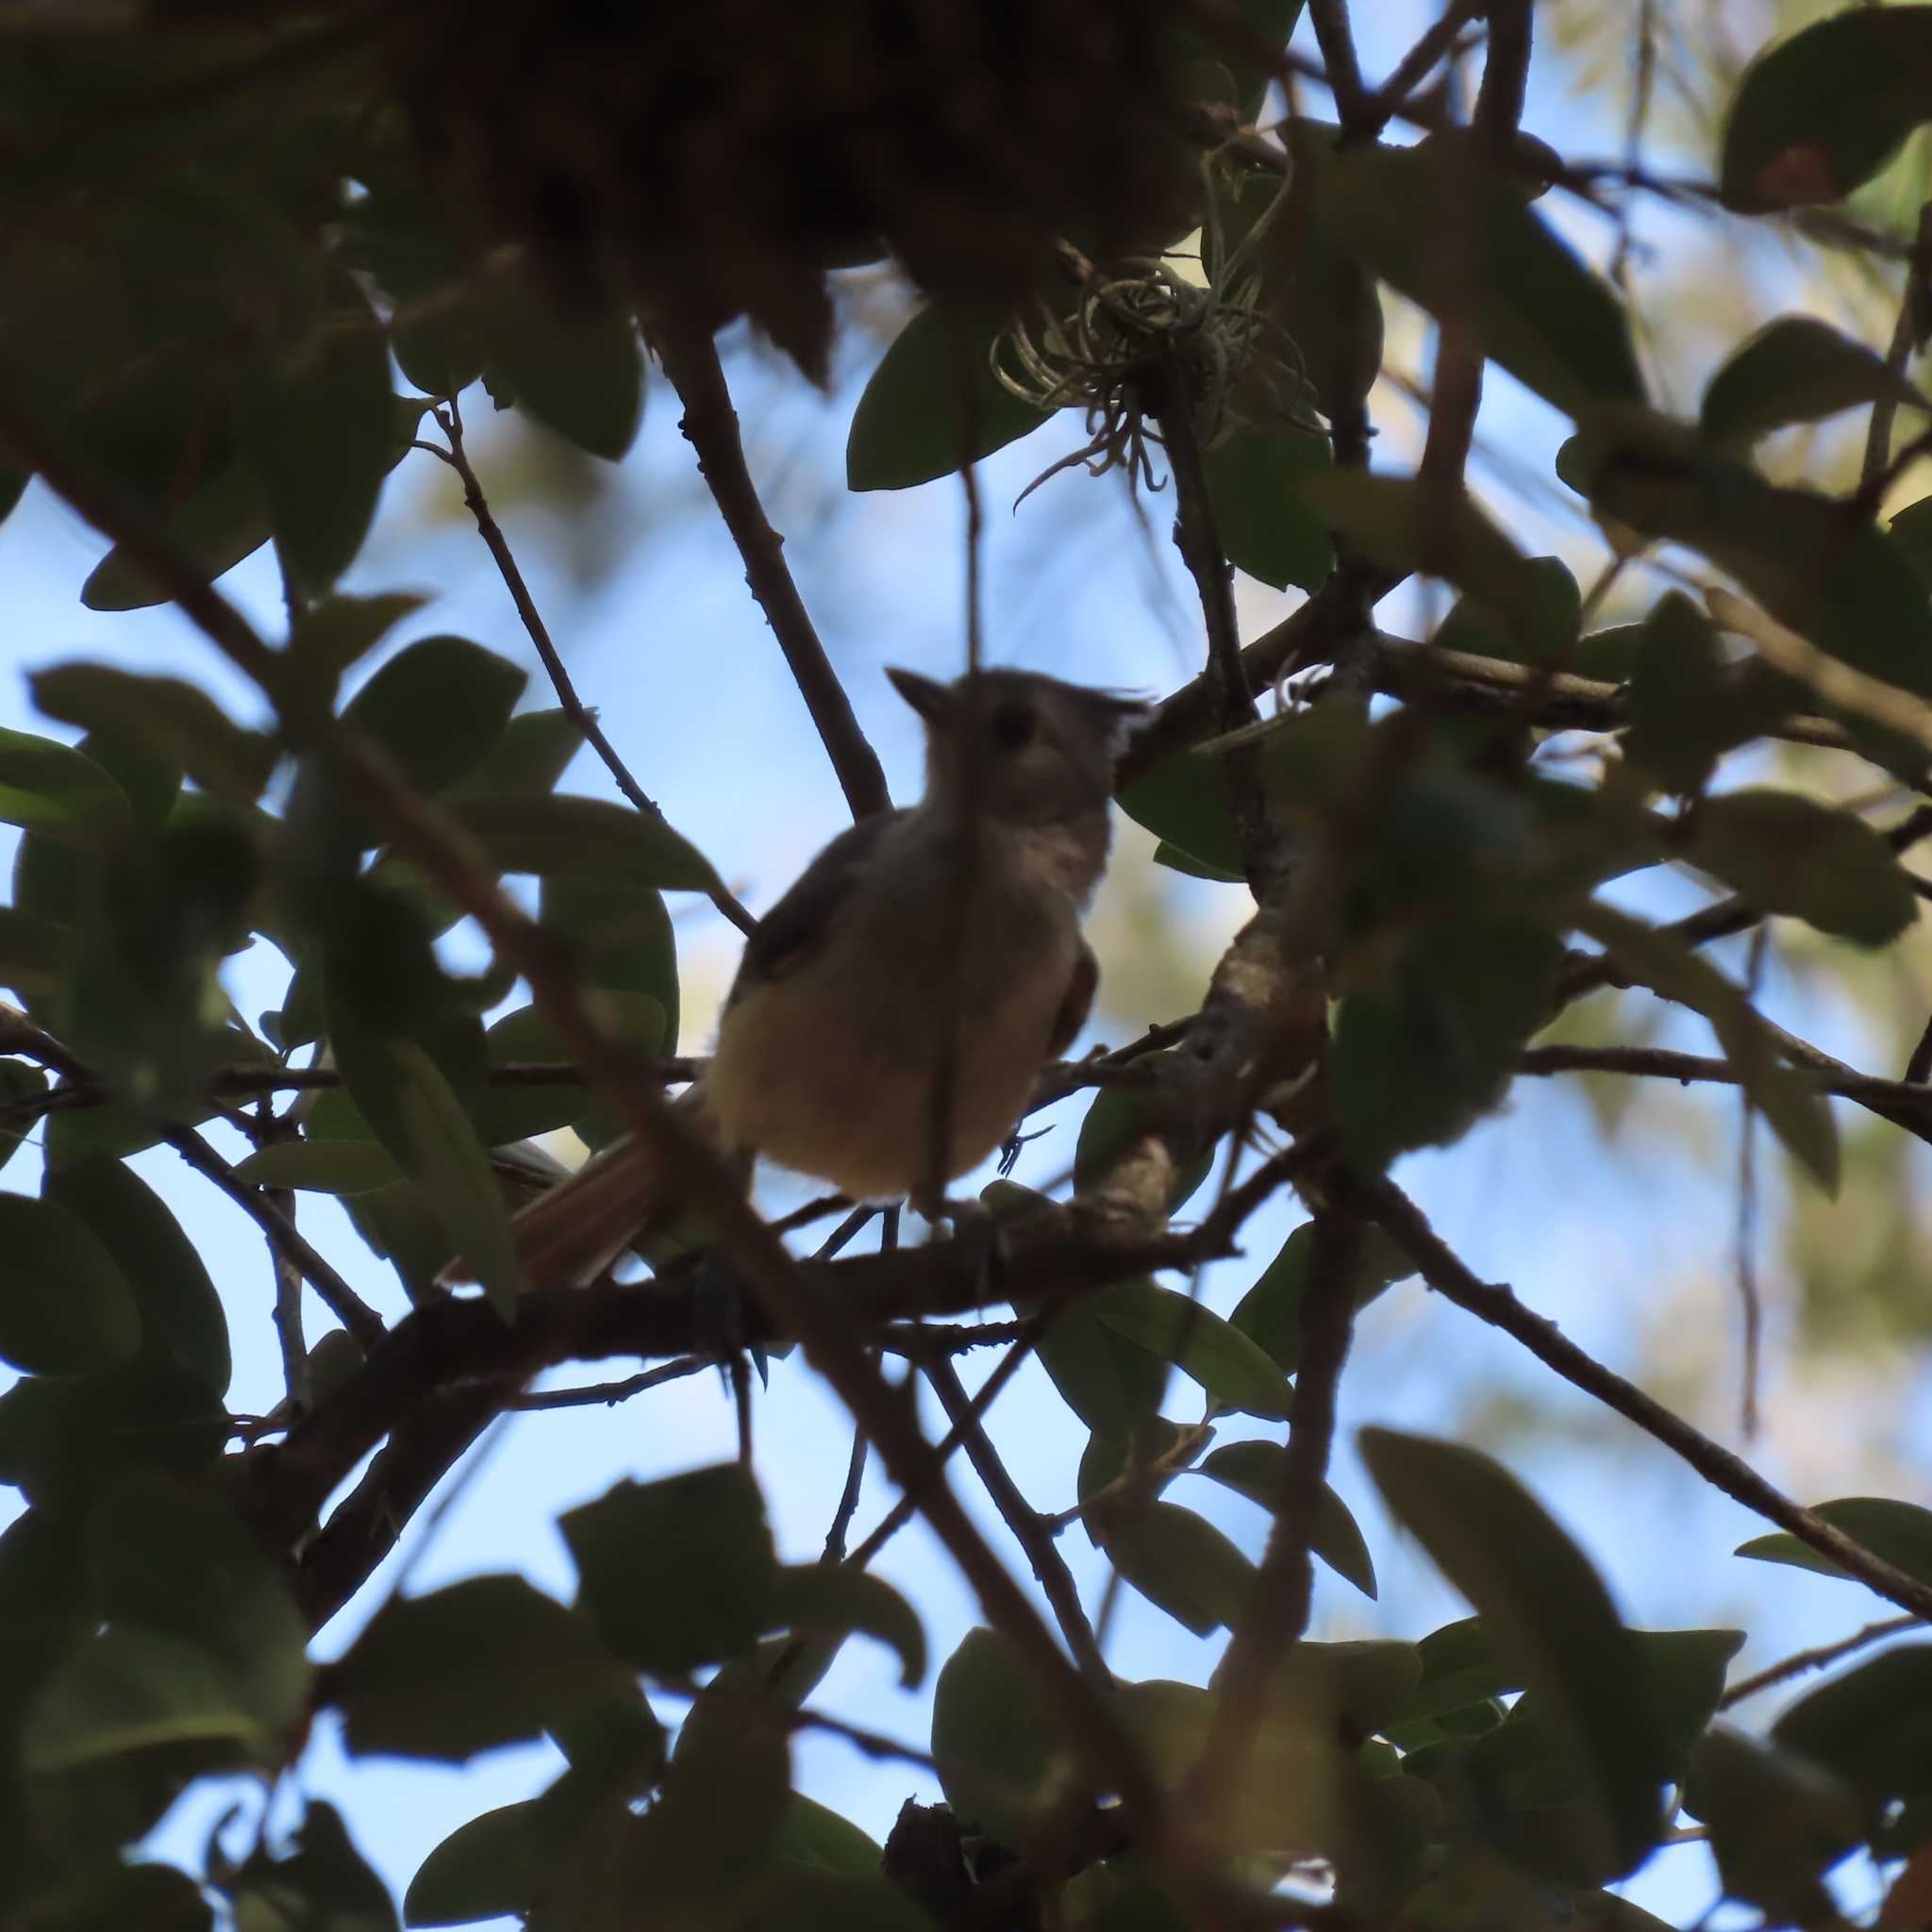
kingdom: Animalia
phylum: Chordata
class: Aves
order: Passeriformes
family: Paridae
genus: Baeolophus
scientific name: Baeolophus atricristatus
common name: Black-crested titmouse
